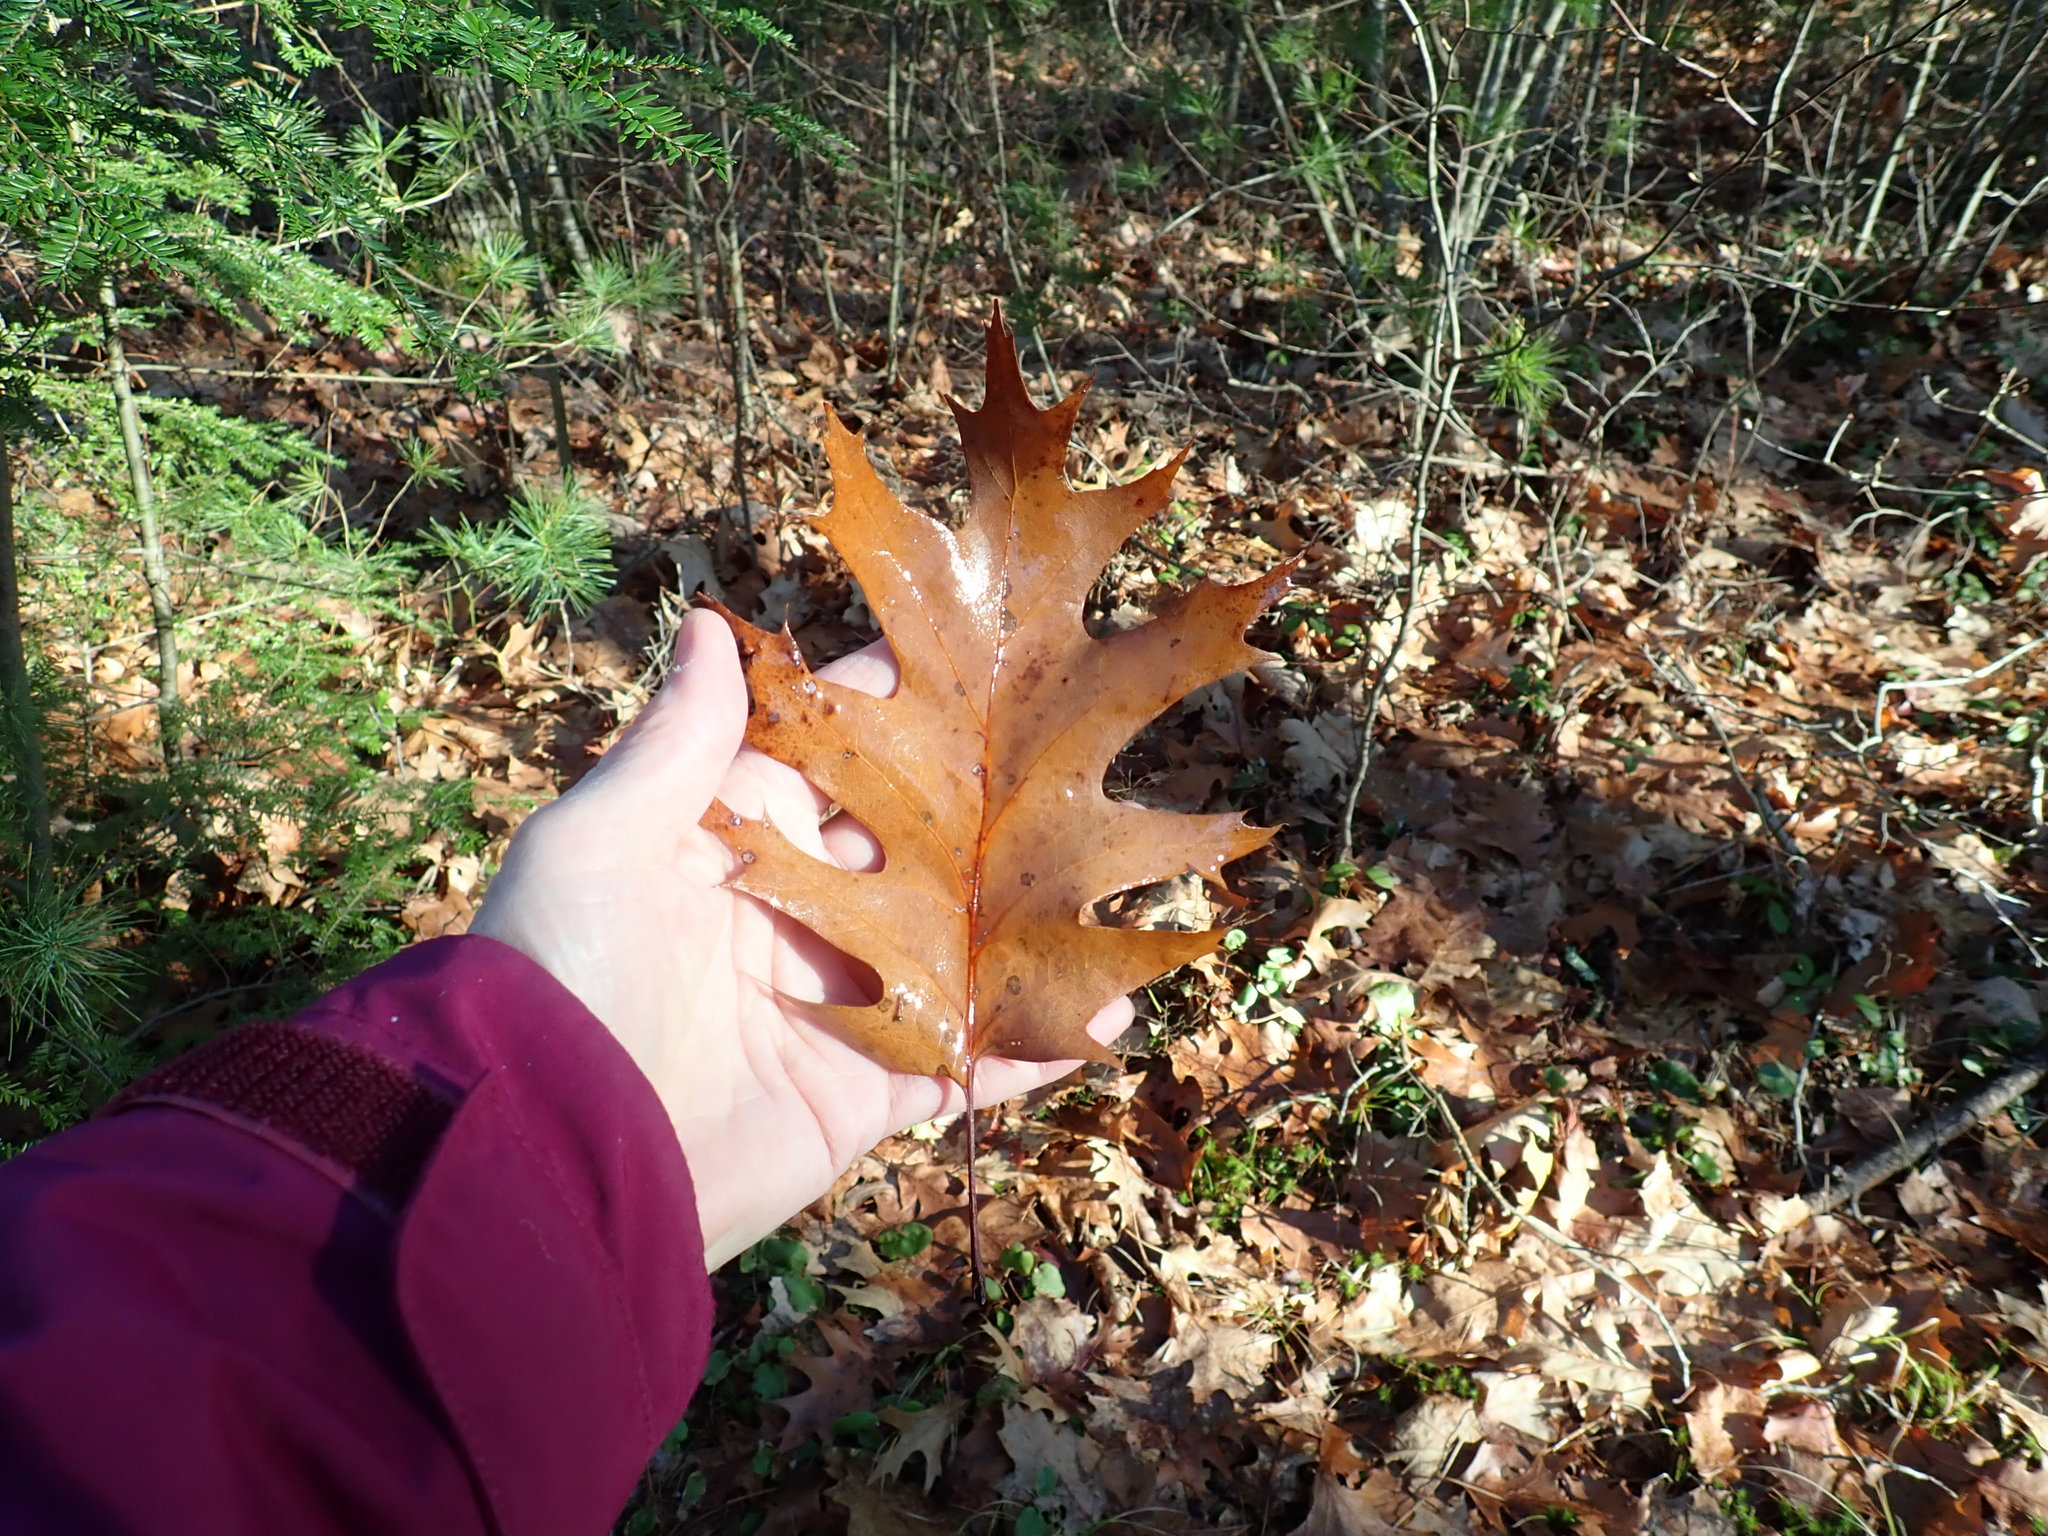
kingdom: Plantae
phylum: Tracheophyta
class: Magnoliopsida
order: Fagales
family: Fagaceae
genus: Quercus
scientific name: Quercus rubra
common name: Red oak
